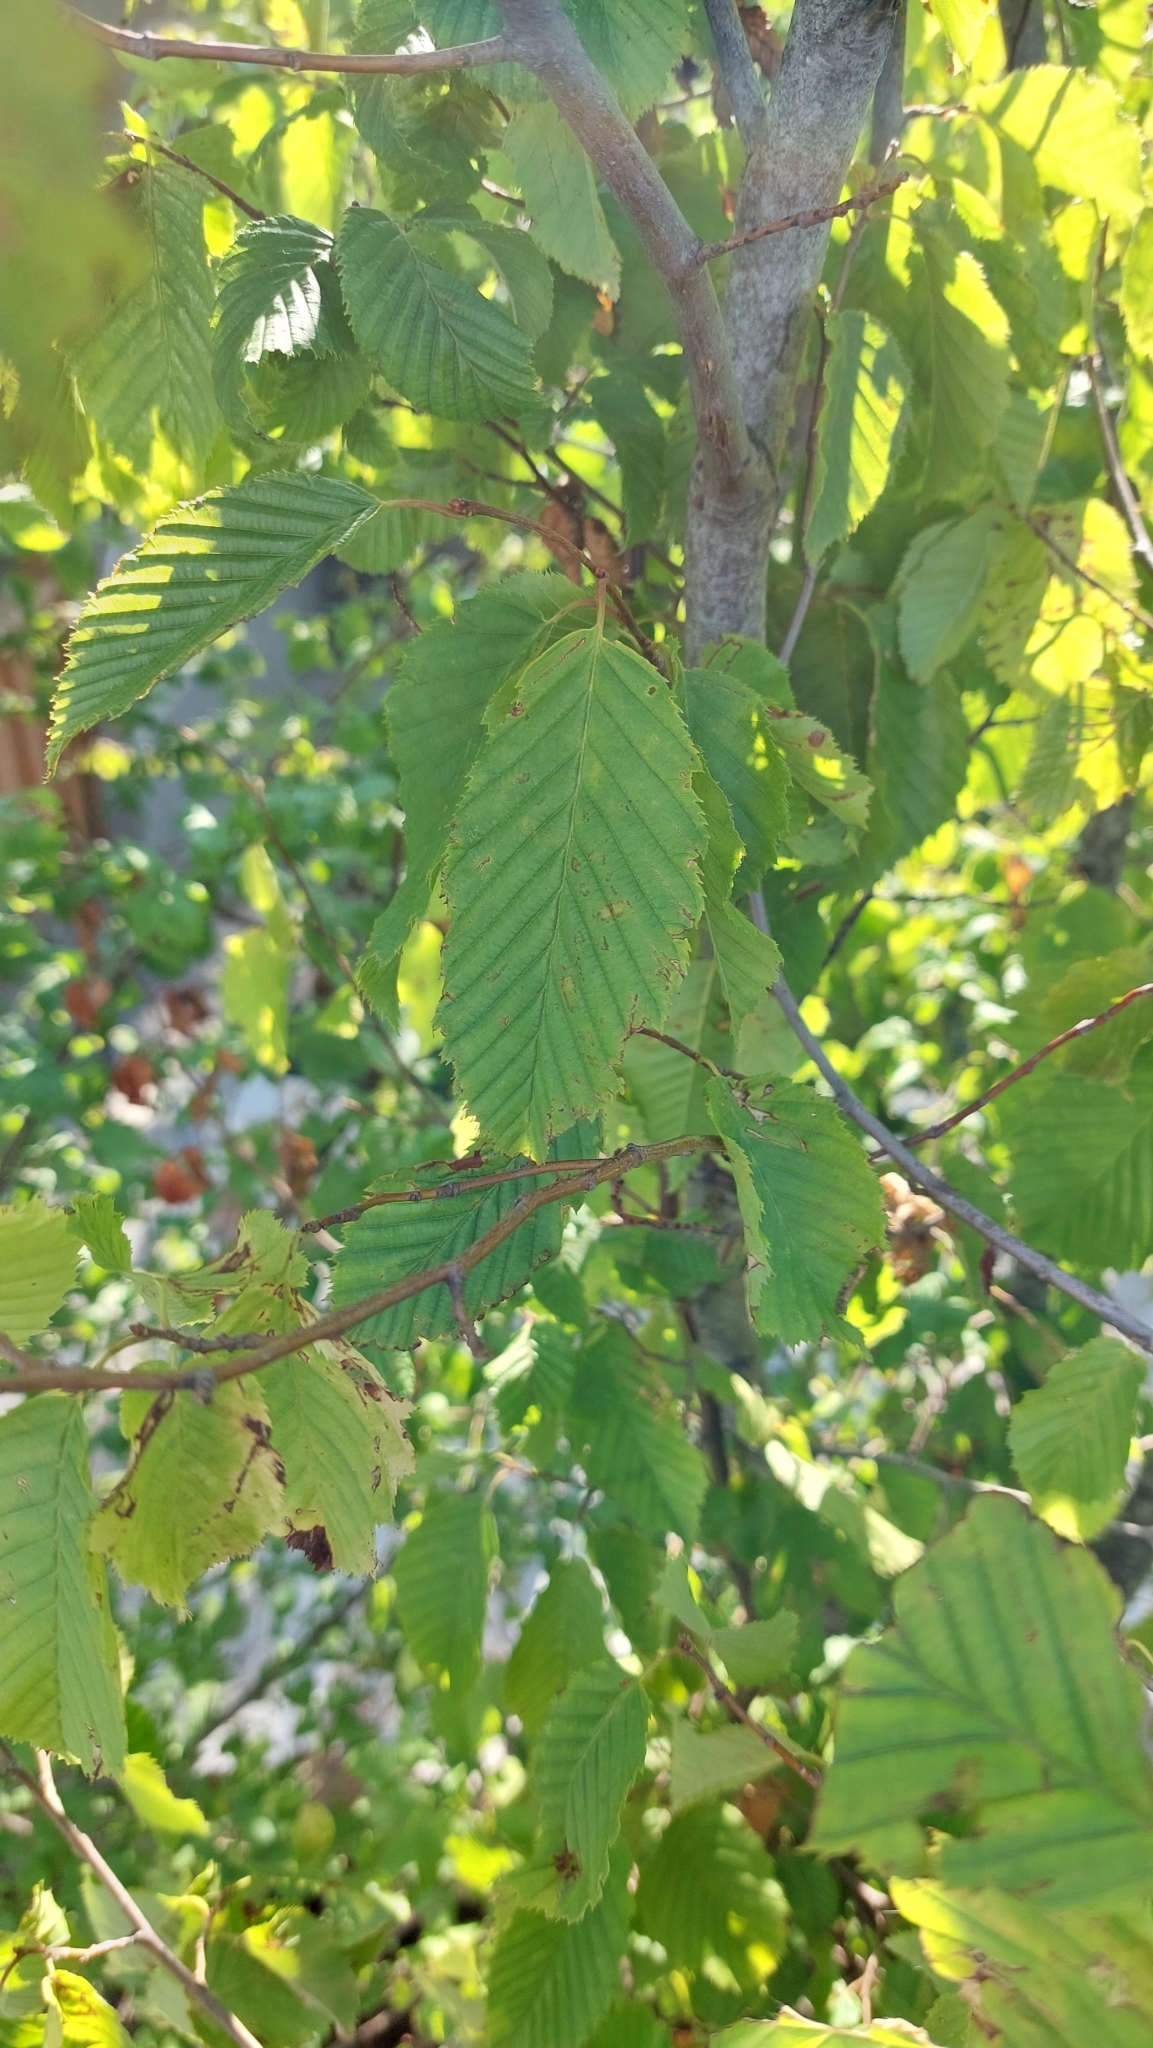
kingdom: Plantae
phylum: Tracheophyta
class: Magnoliopsida
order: Fagales
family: Betulaceae
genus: Carpinus
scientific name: Carpinus betulus
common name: Hornbeam
